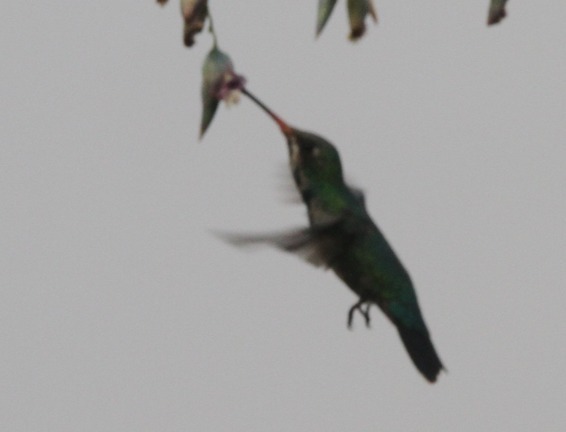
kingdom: Animalia
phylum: Chordata
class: Aves
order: Apodiformes
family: Trochilidae
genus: Chlorostilbon
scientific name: Chlorostilbon lucidus
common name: Glittering-bellied emerald
